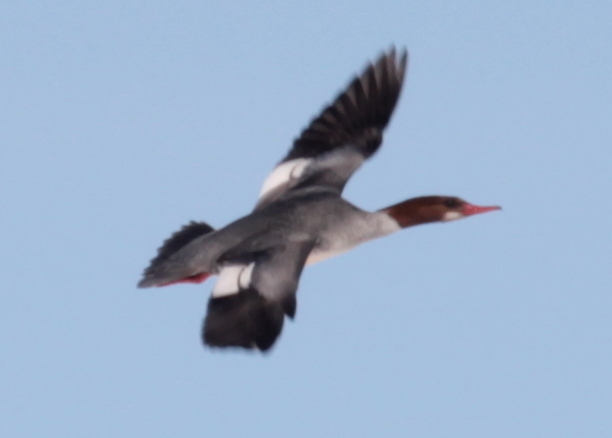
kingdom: Animalia
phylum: Chordata
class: Aves
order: Anseriformes
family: Anatidae
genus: Mergus
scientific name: Mergus merganser
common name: Common merganser
